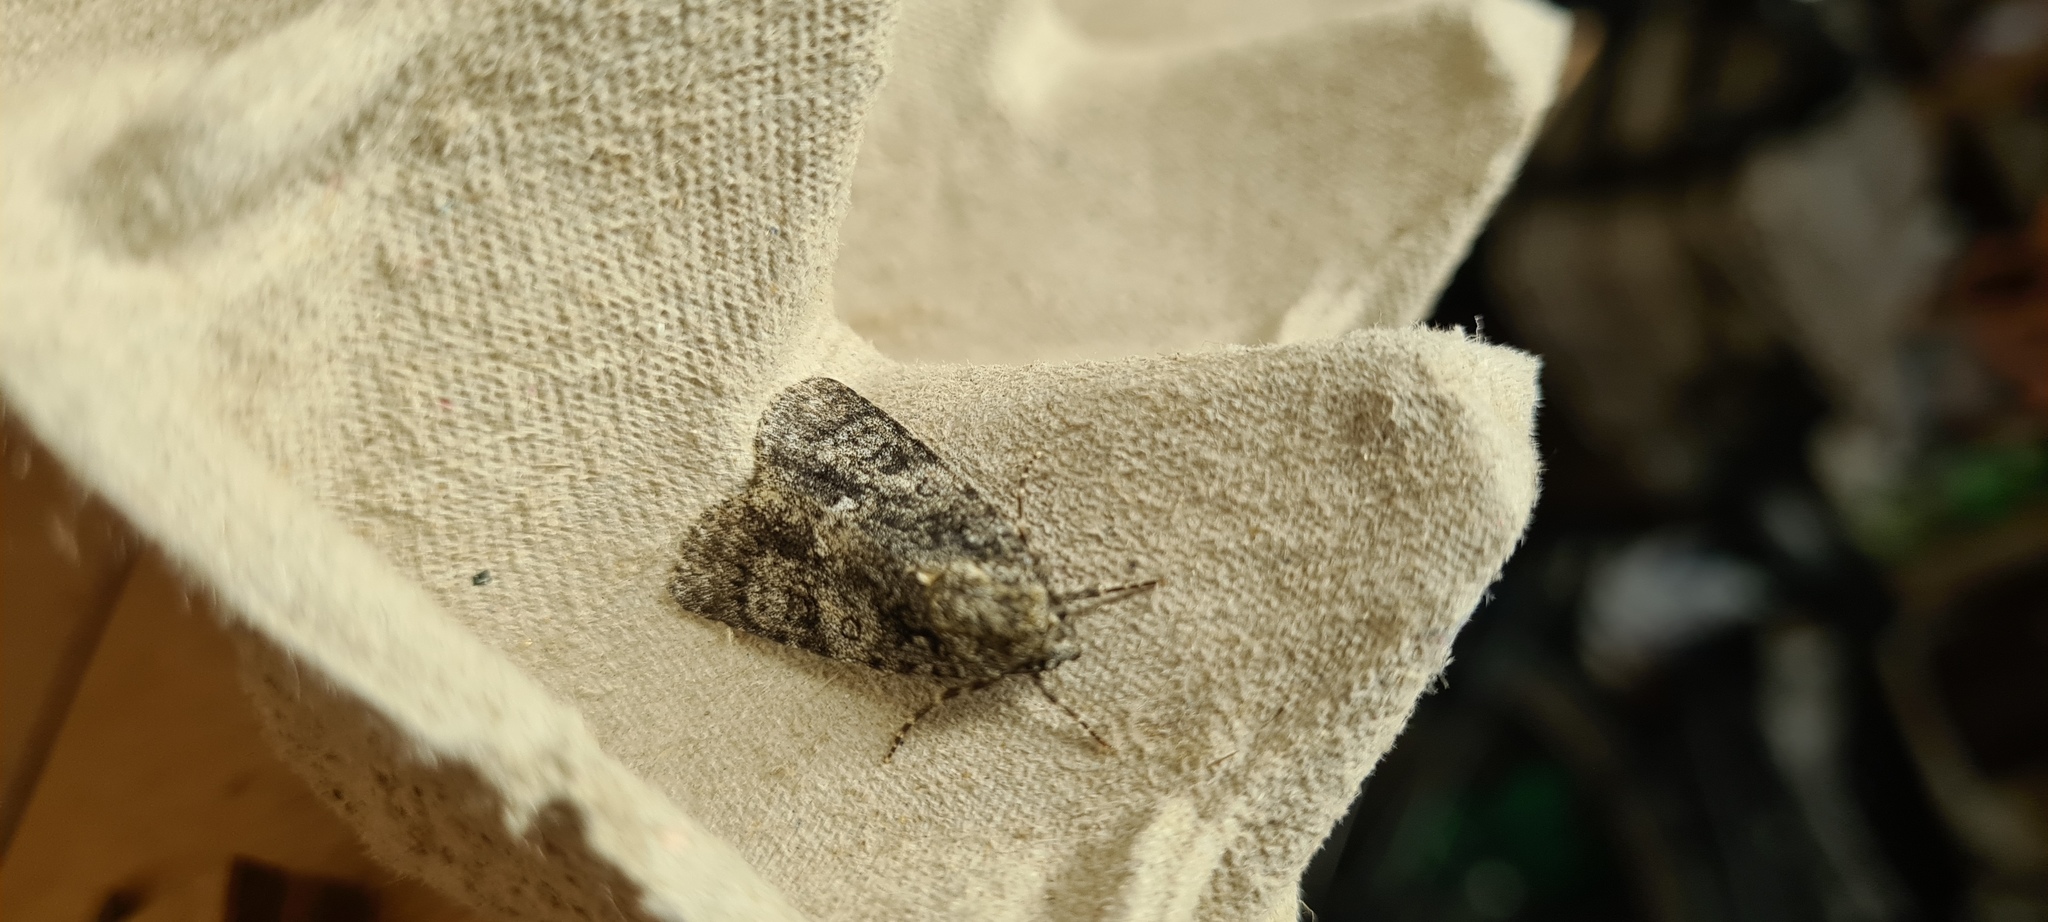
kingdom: Animalia
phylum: Arthropoda
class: Insecta
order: Lepidoptera
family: Noctuidae
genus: Acronicta
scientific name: Acronicta rumicis
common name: Knot grass
